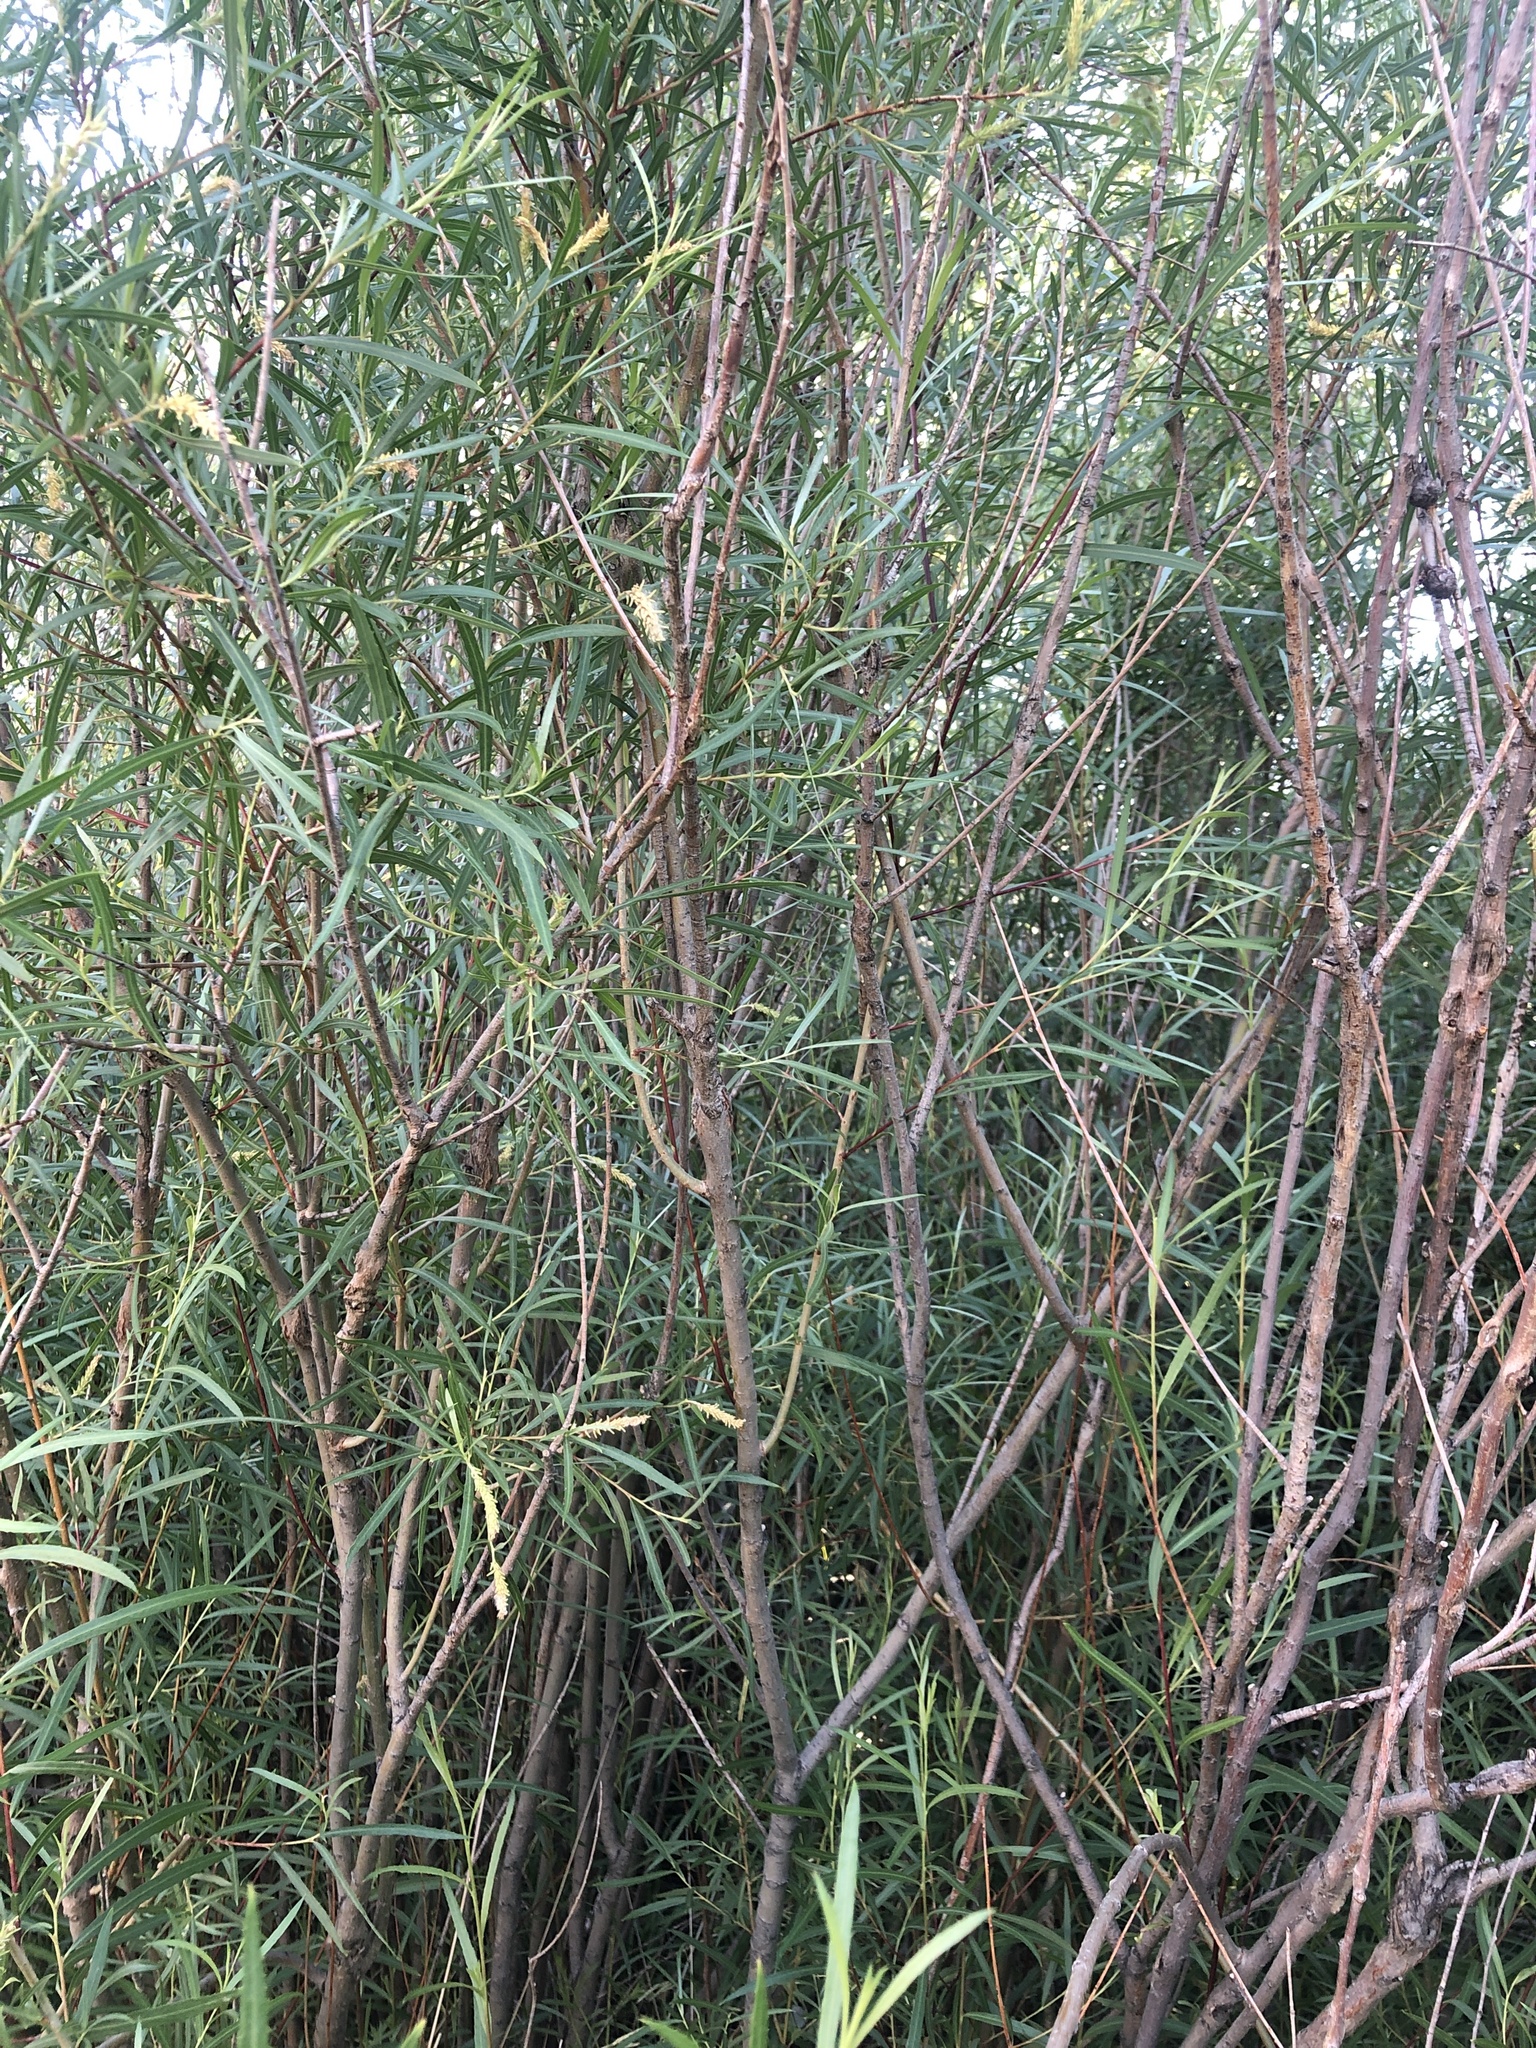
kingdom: Plantae
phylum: Tracheophyta
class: Magnoliopsida
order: Malpighiales
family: Salicaceae
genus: Salix
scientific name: Salix interior
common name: Sandbar willow
